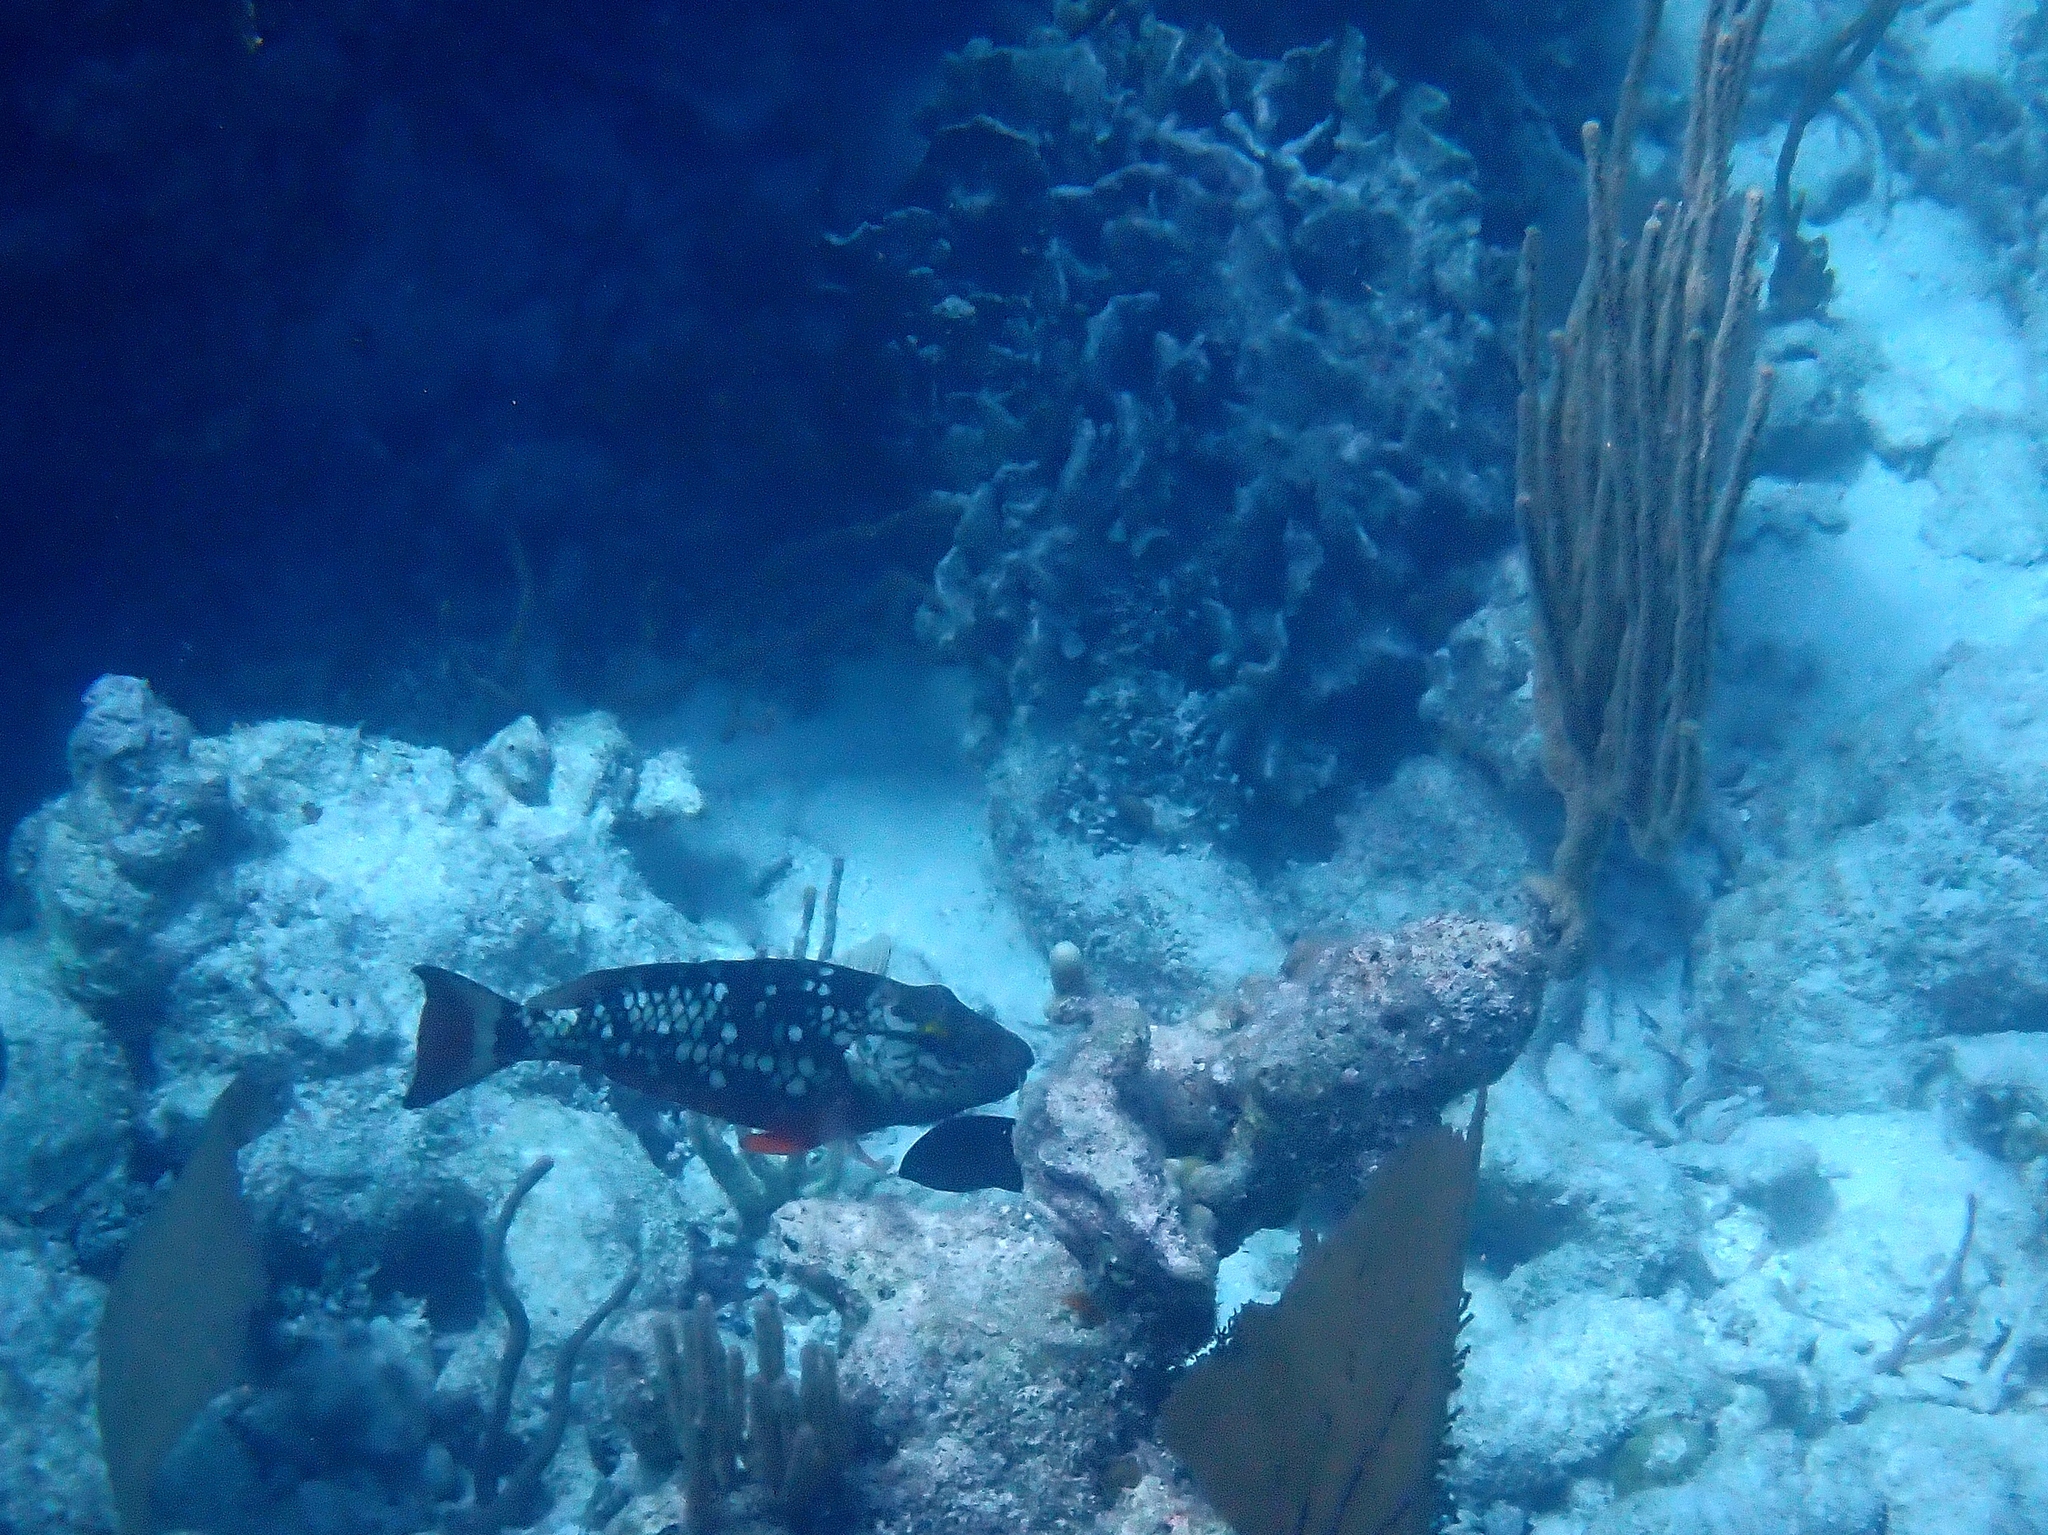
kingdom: Animalia
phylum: Chordata
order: Perciformes
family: Scaridae
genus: Sparisoma
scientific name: Sparisoma viride
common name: Stoplight parrotfish
